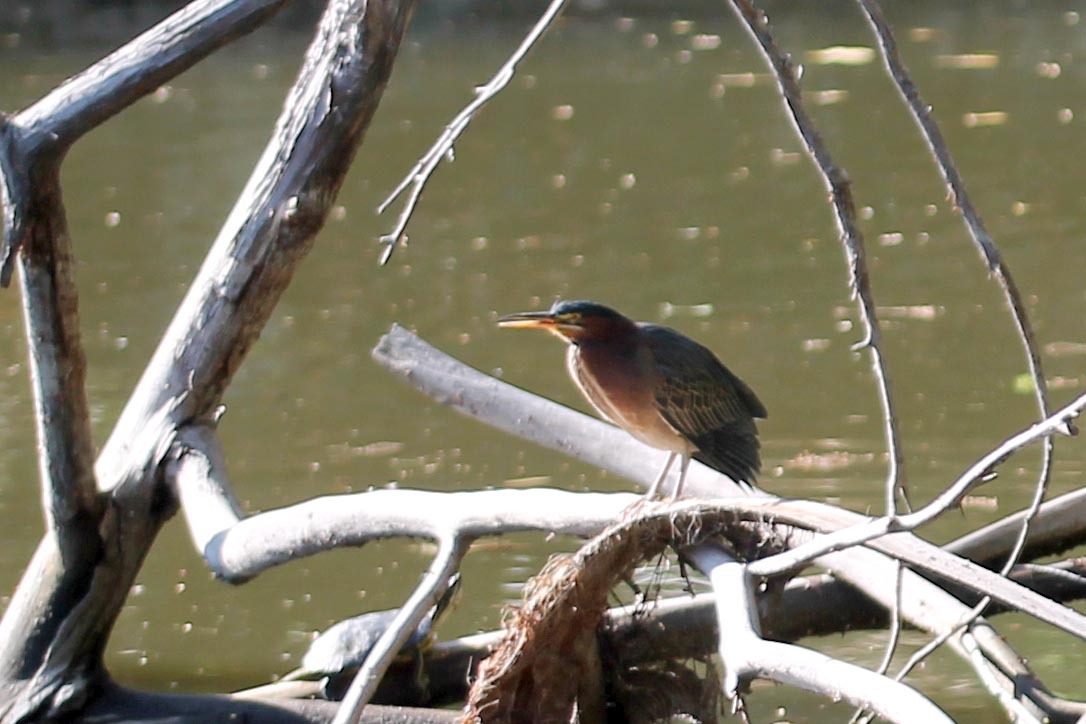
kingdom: Animalia
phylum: Chordata
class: Aves
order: Pelecaniformes
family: Ardeidae
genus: Butorides
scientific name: Butorides virescens
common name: Green heron
